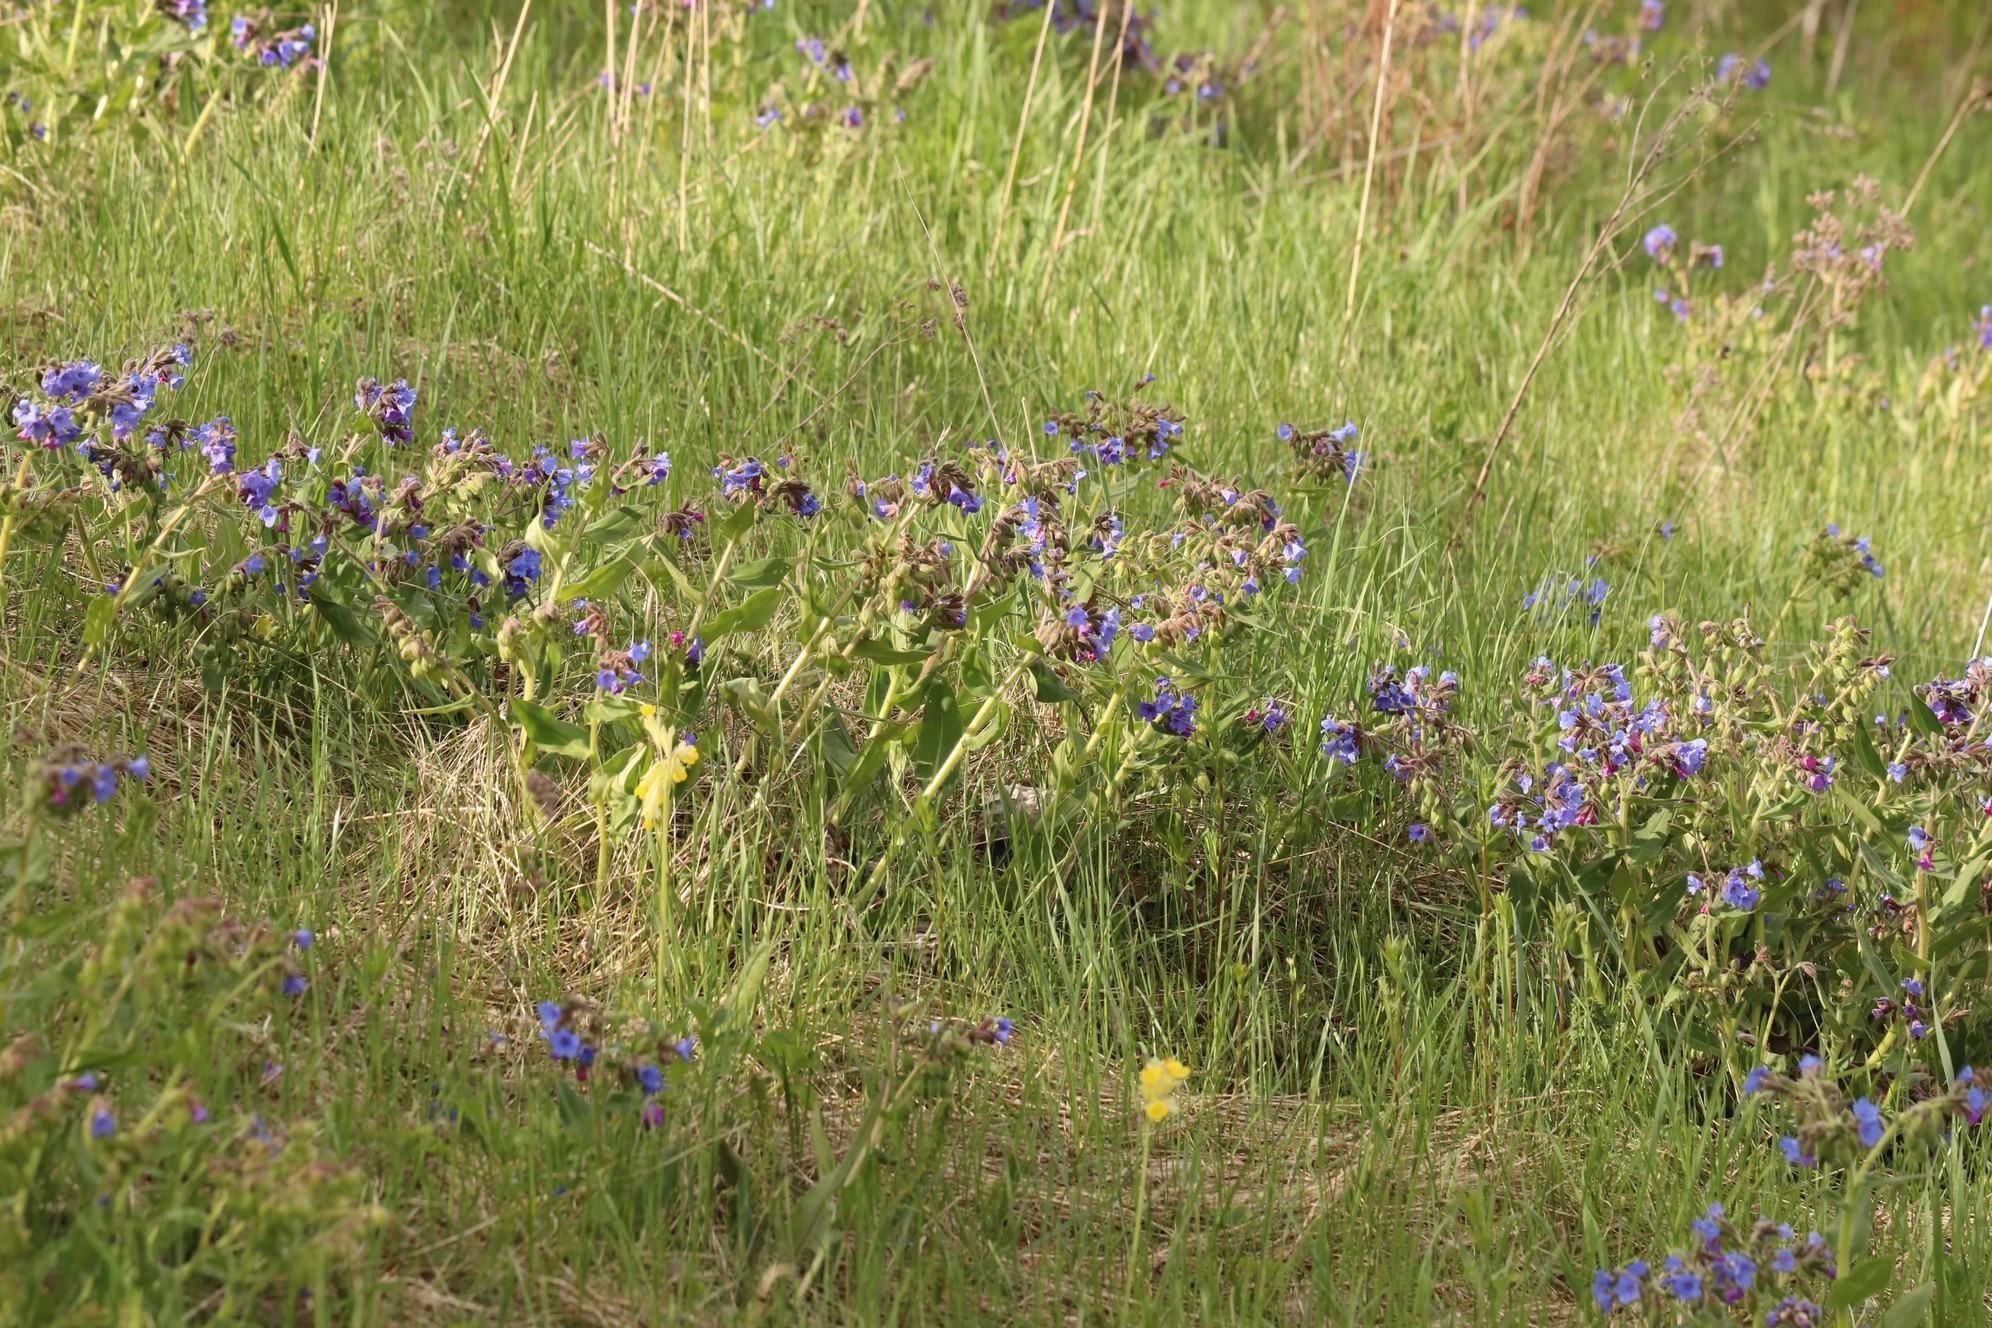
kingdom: Plantae
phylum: Tracheophyta
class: Magnoliopsida
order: Boraginales
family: Boraginaceae
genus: Pulmonaria
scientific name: Pulmonaria mollis
